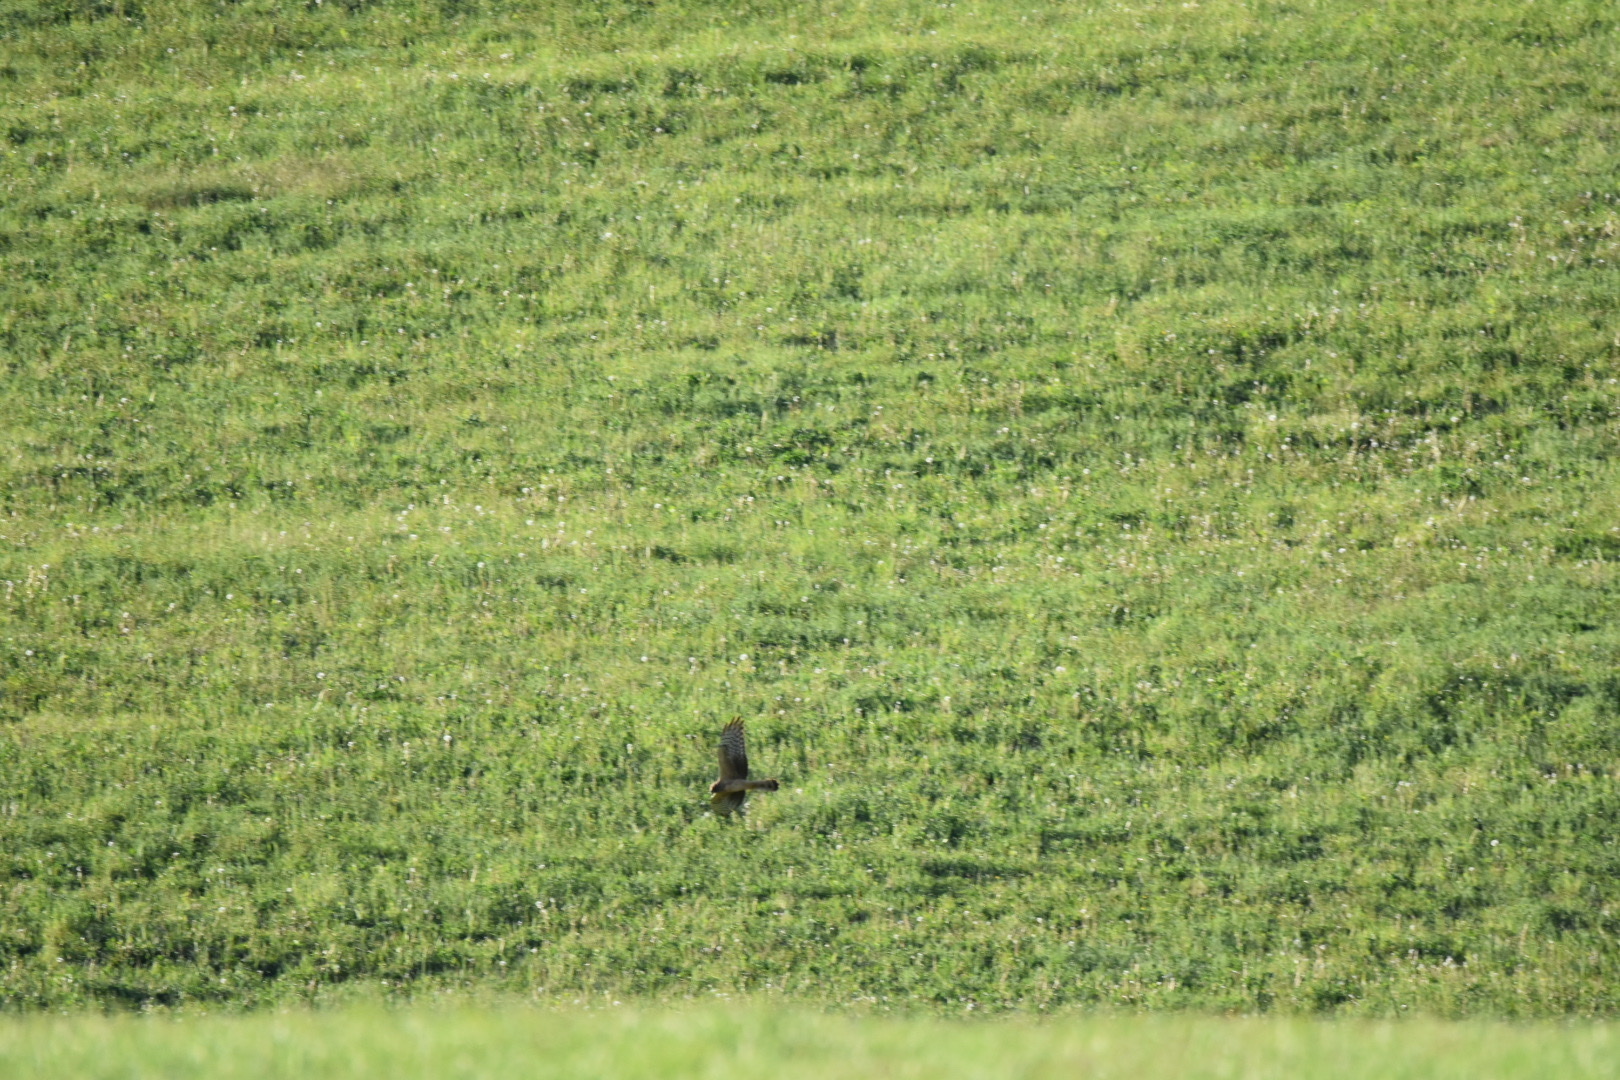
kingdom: Animalia
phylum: Chordata
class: Aves
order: Accipitriformes
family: Accipitridae
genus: Circus
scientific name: Circus cyaneus
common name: Hen harrier
